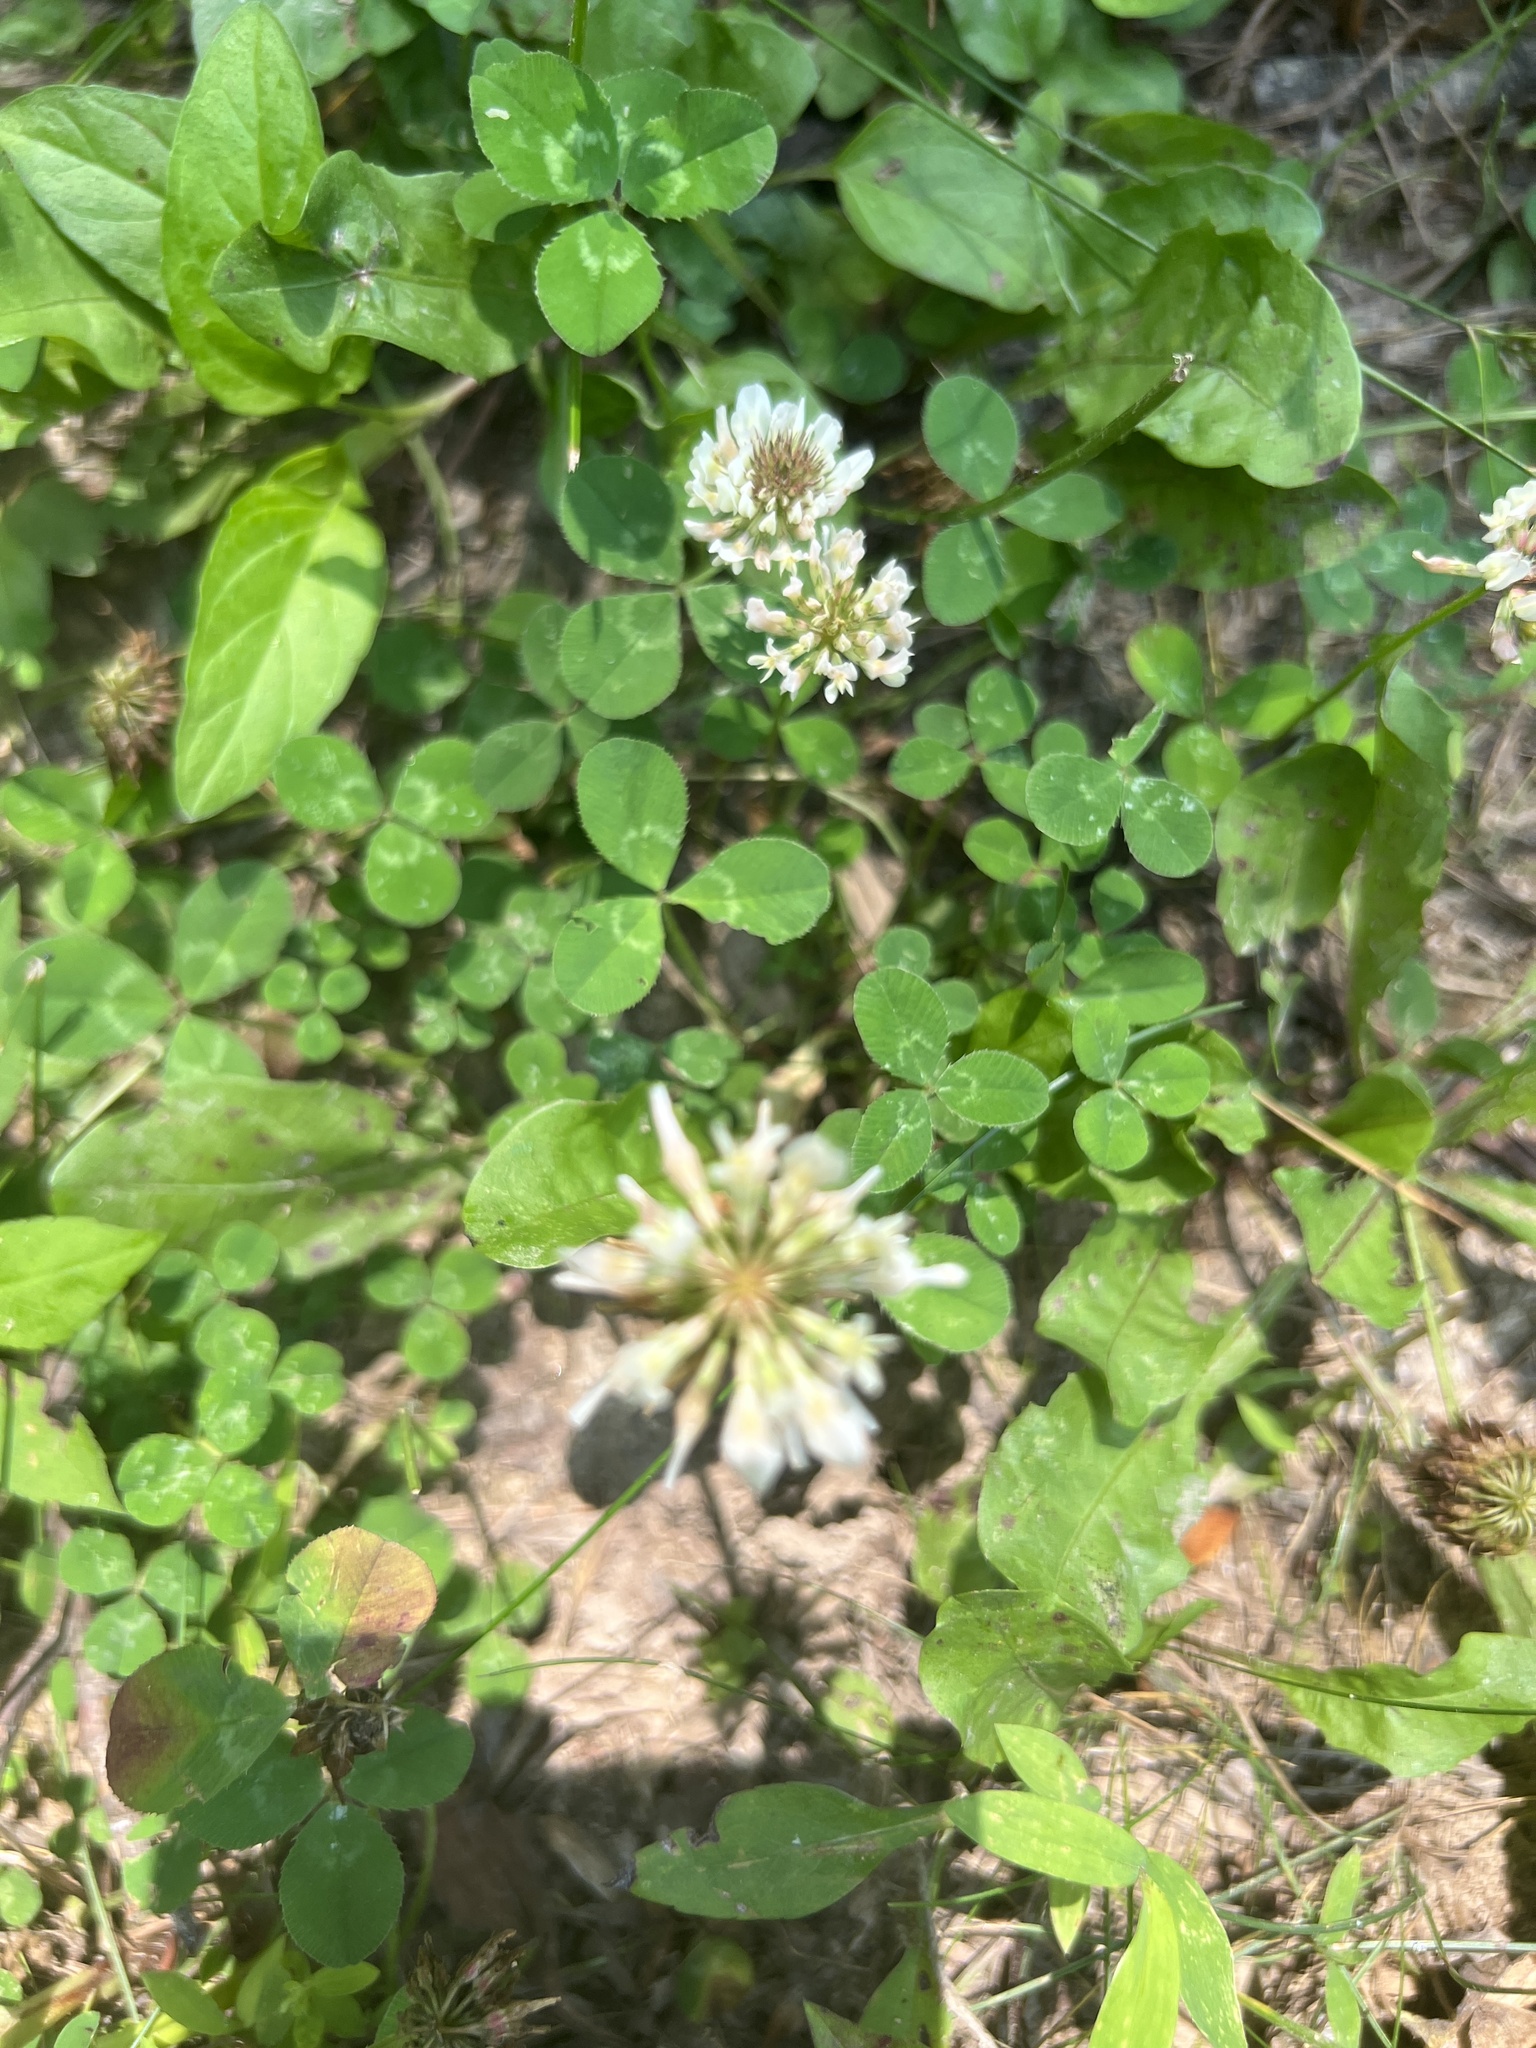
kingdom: Plantae
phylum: Tracheophyta
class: Magnoliopsida
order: Fabales
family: Fabaceae
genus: Trifolium
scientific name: Trifolium repens
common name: White clover
